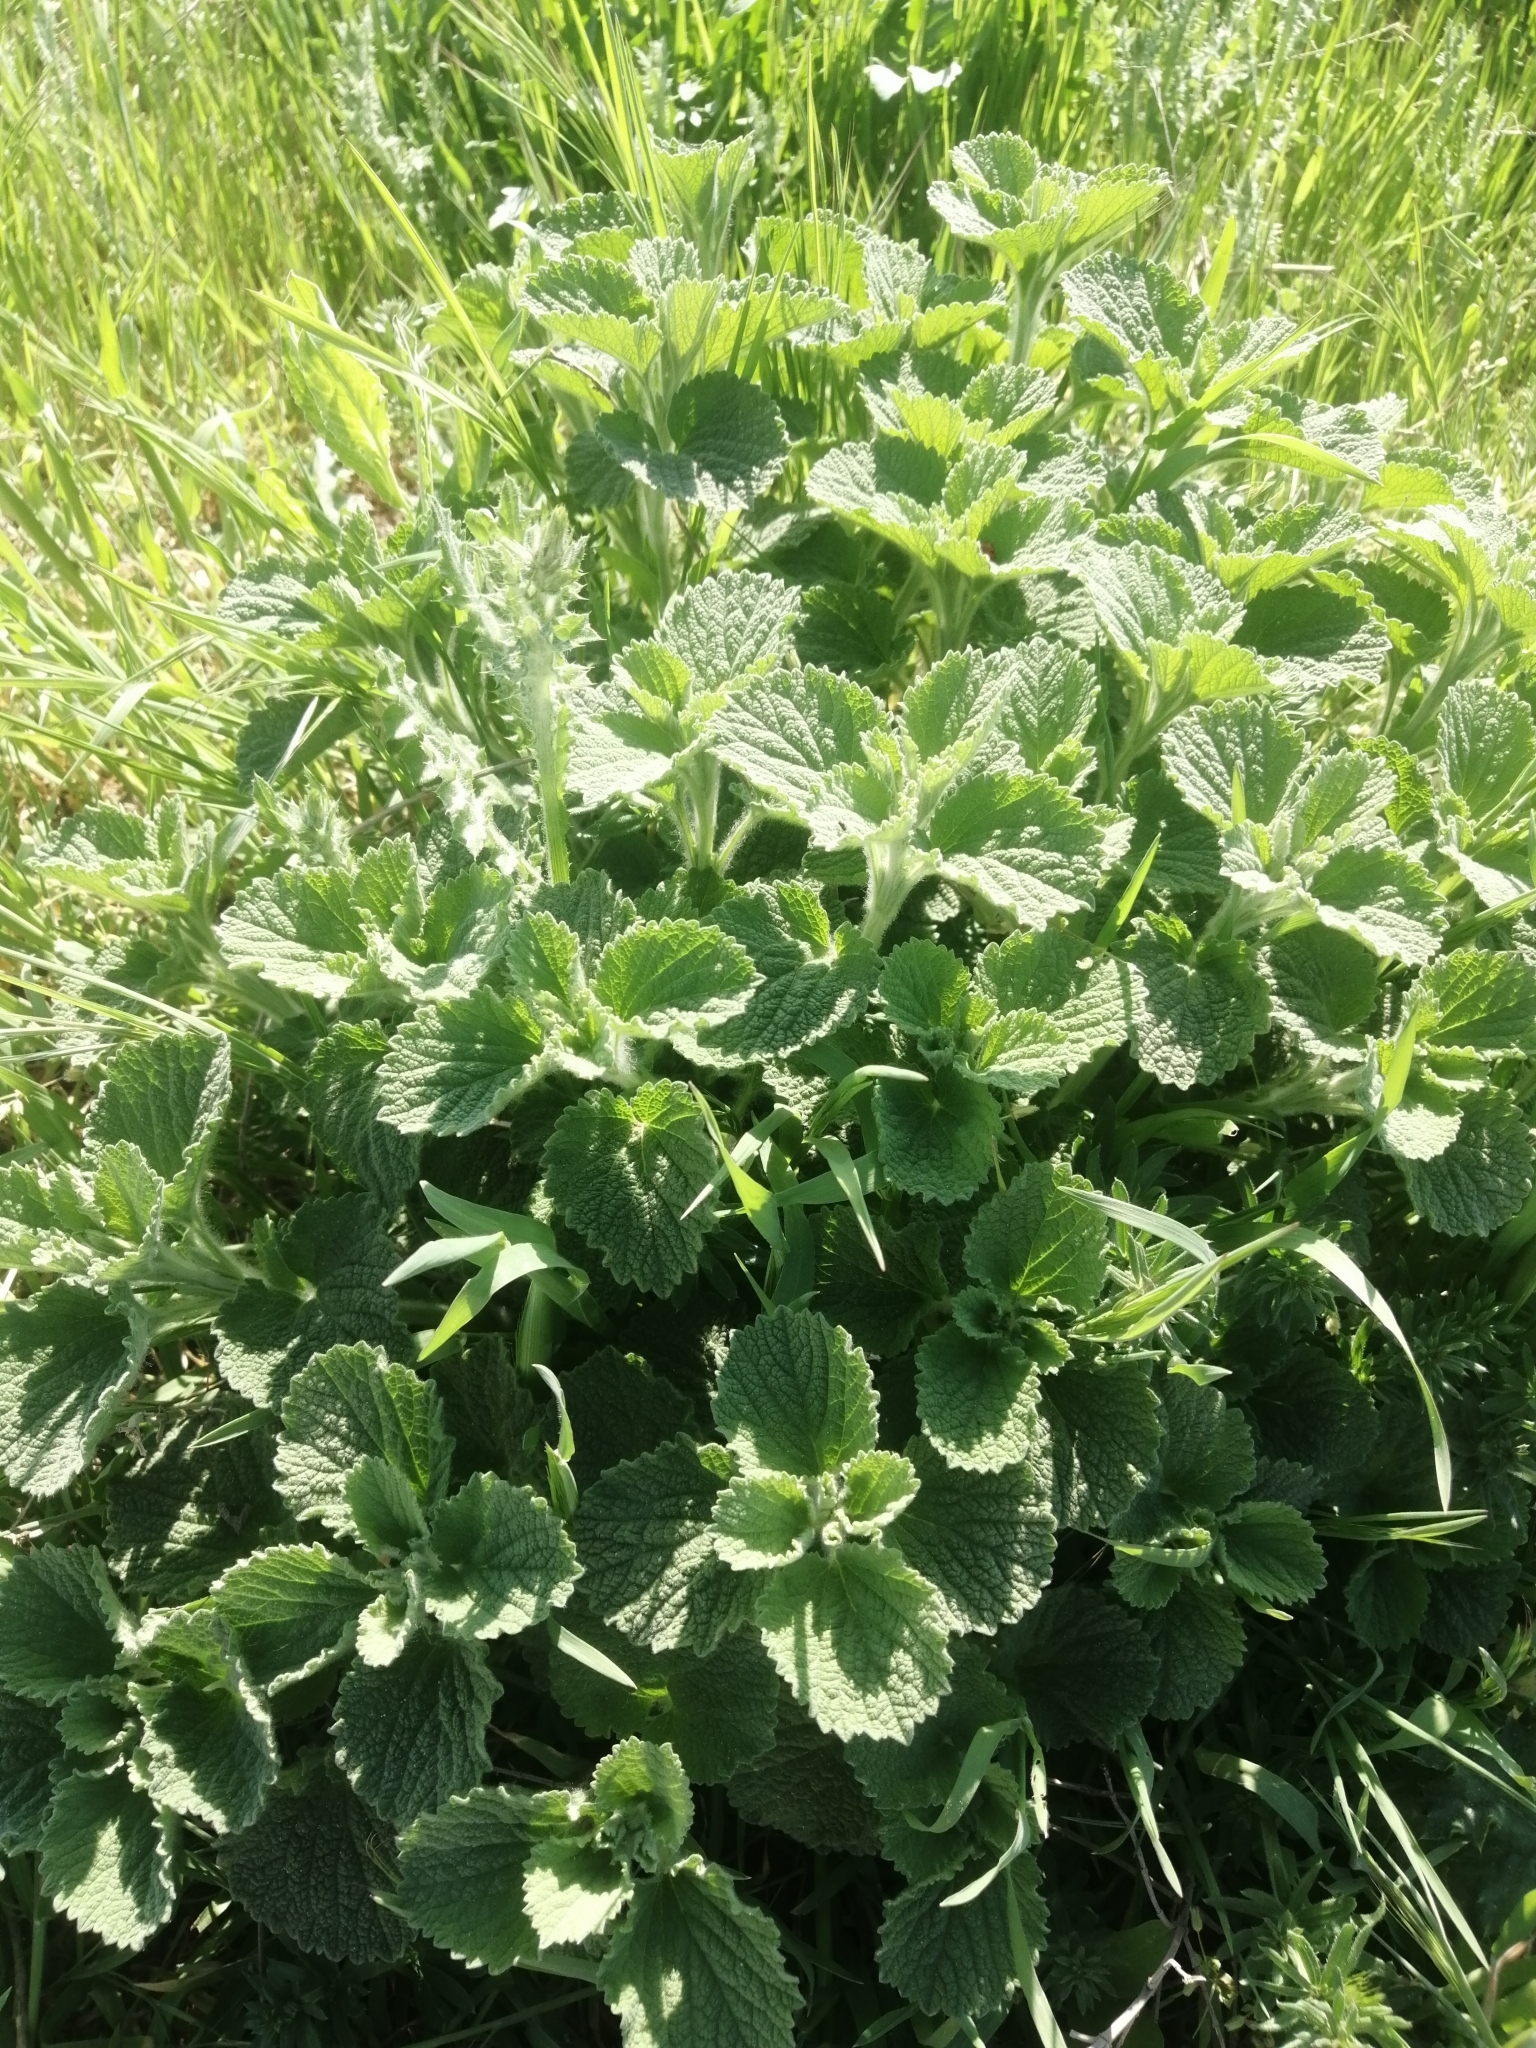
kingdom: Plantae
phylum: Tracheophyta
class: Magnoliopsida
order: Lamiales
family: Lamiaceae
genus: Marrubium
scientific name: Marrubium peregrinum
